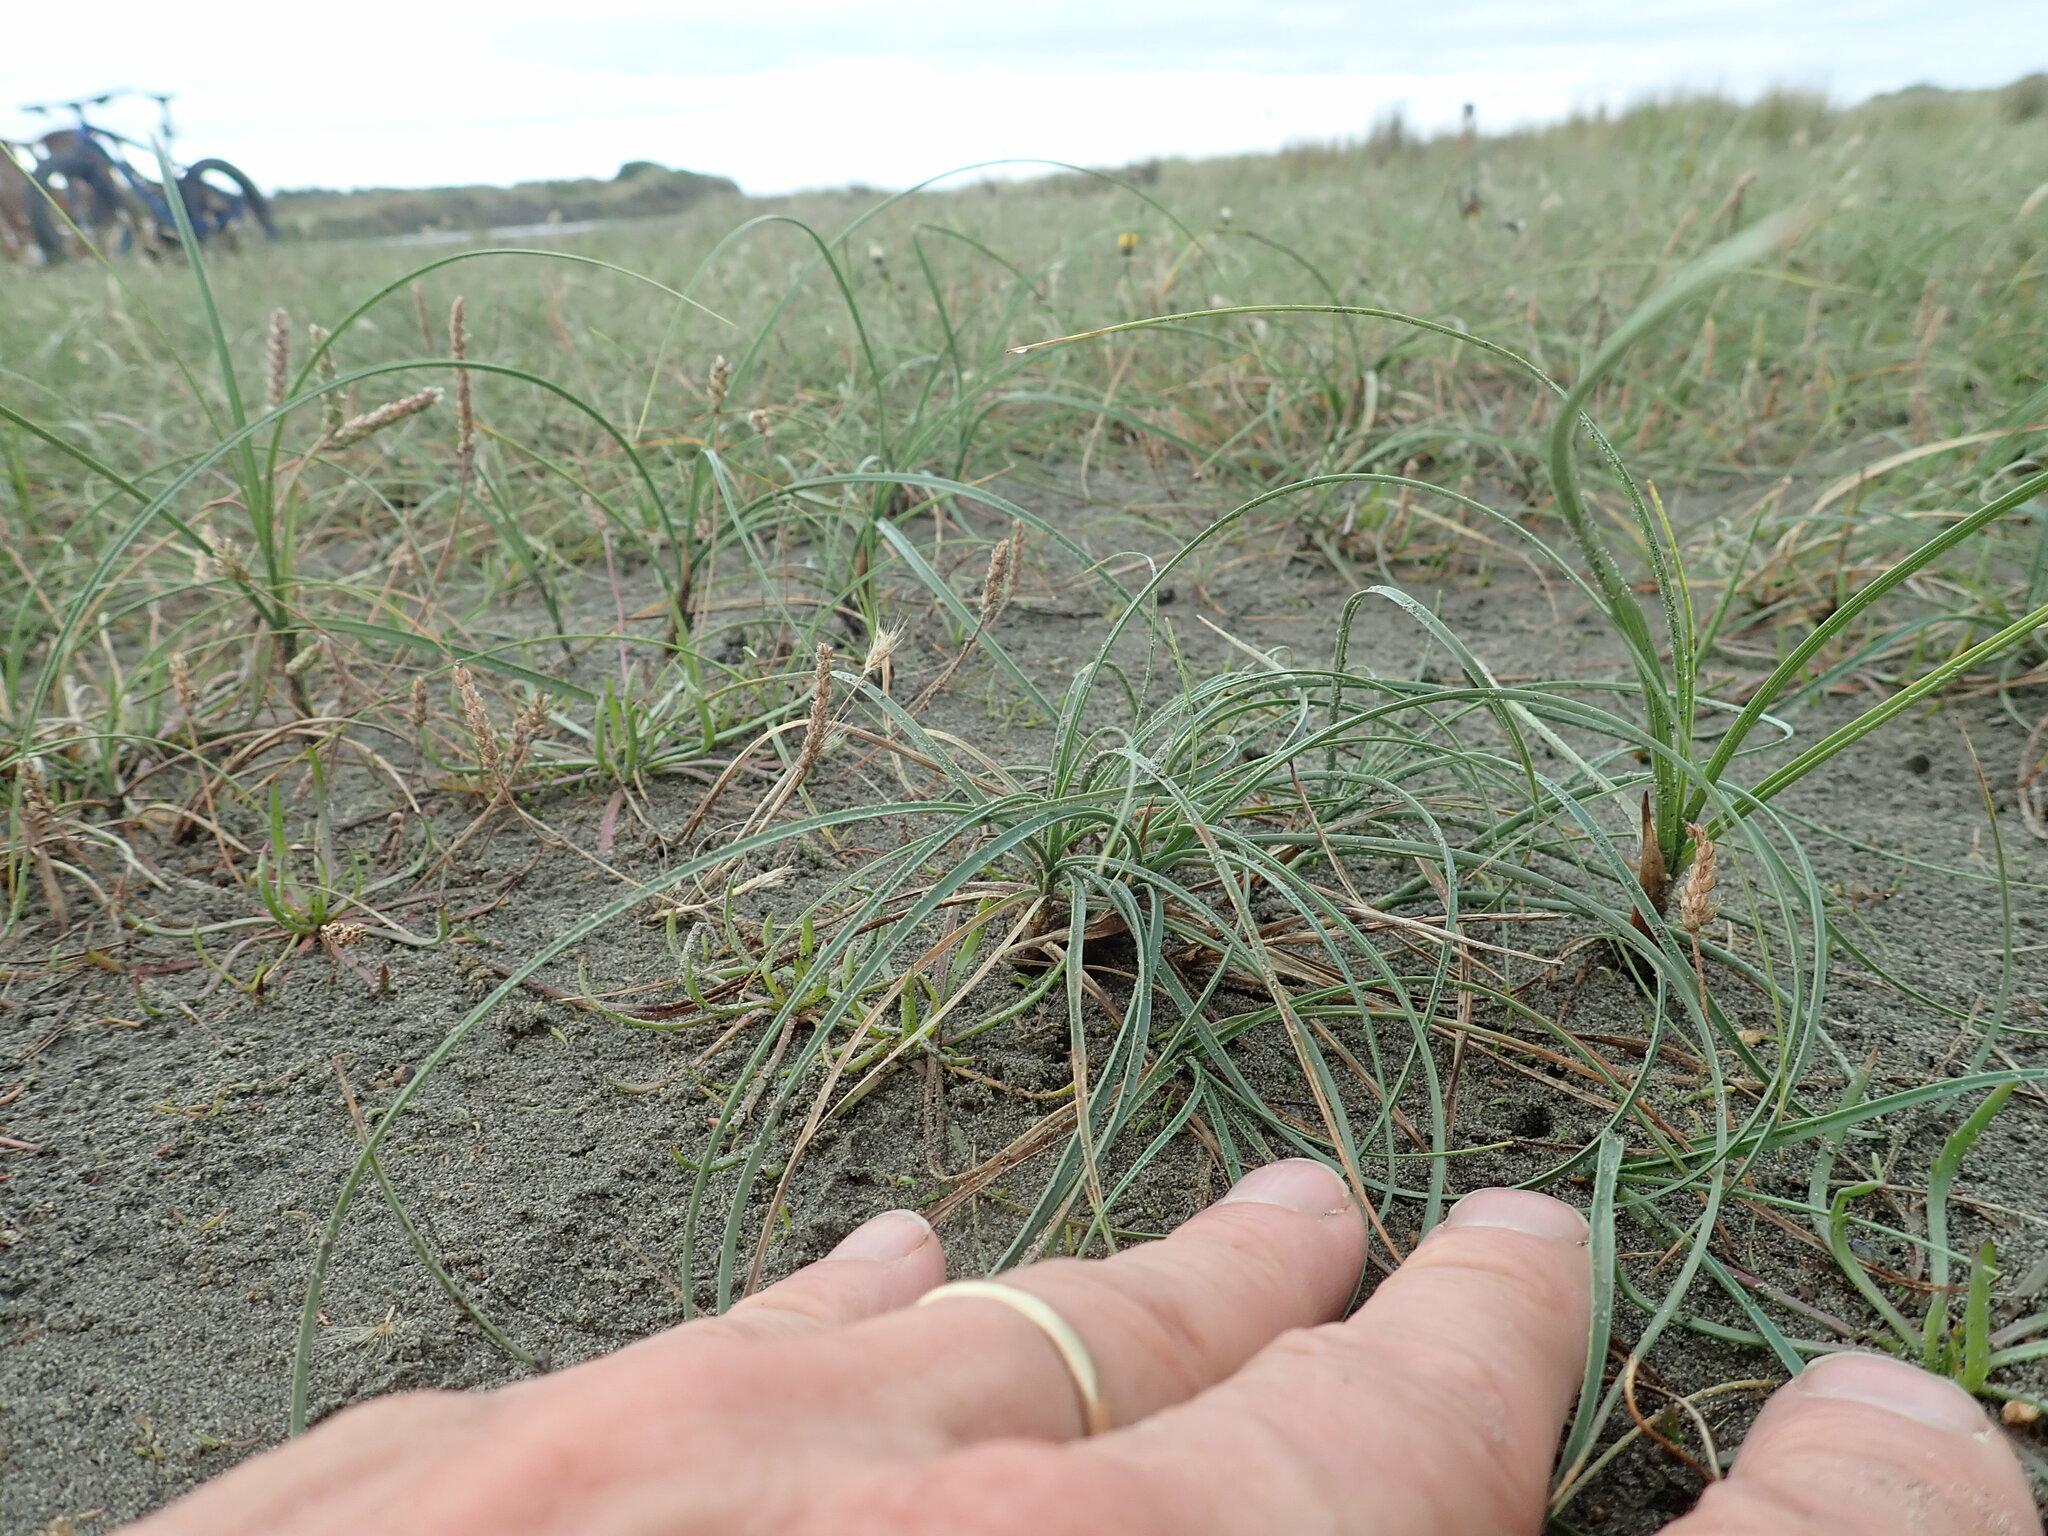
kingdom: Plantae
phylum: Tracheophyta
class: Liliopsida
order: Poales
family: Cyperaceae
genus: Carex
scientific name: Carex pumila
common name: Dwarf sedge
